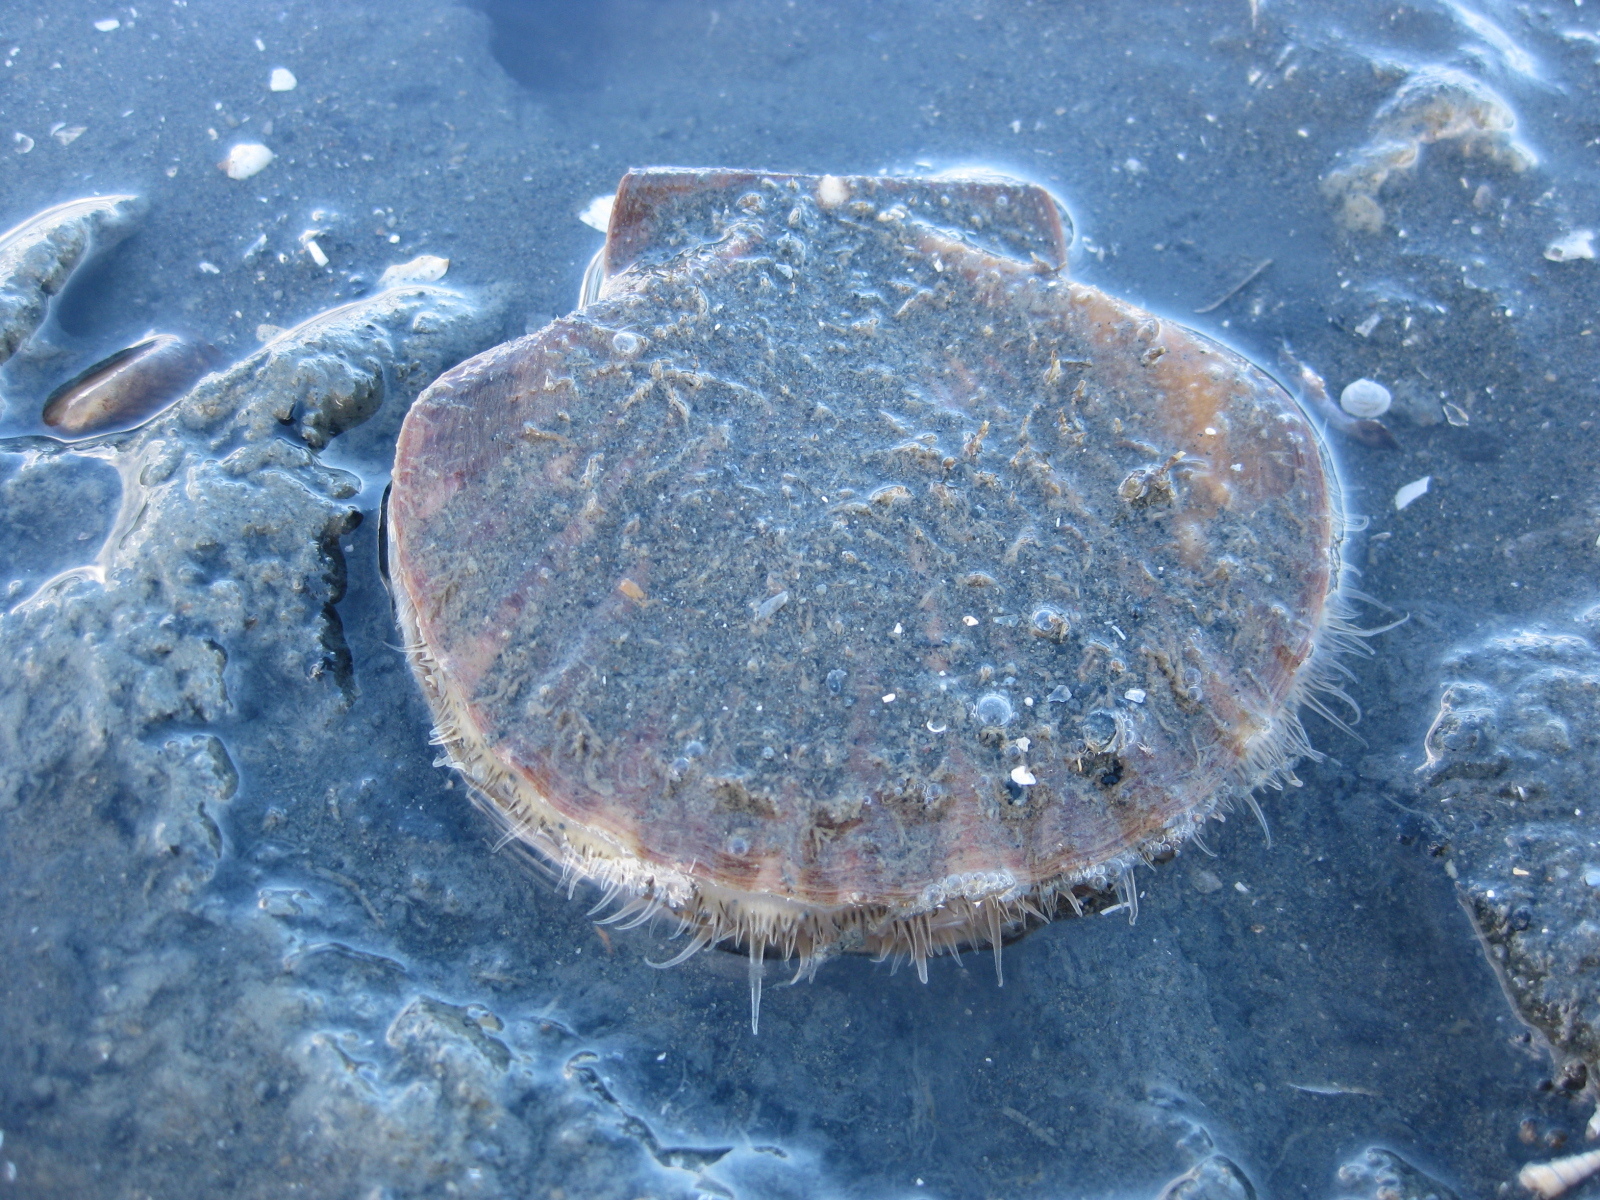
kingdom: Animalia
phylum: Mollusca
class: Bivalvia
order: Pectinida
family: Pectinidae
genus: Pecten
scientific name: Pecten novaezelandiae
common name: New zealand scallop
